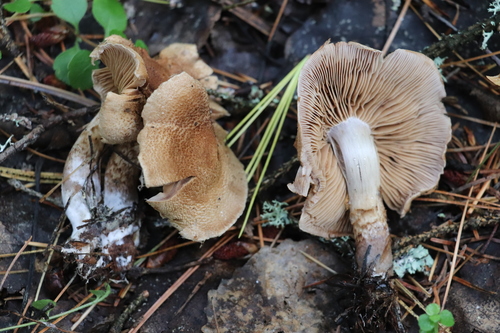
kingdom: Fungi
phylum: Basidiomycota
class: Agaricomycetes
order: Agaricales
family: Cortinariaceae
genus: Cortinarius
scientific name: Cortinarius pholideus
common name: Scaly webcap
